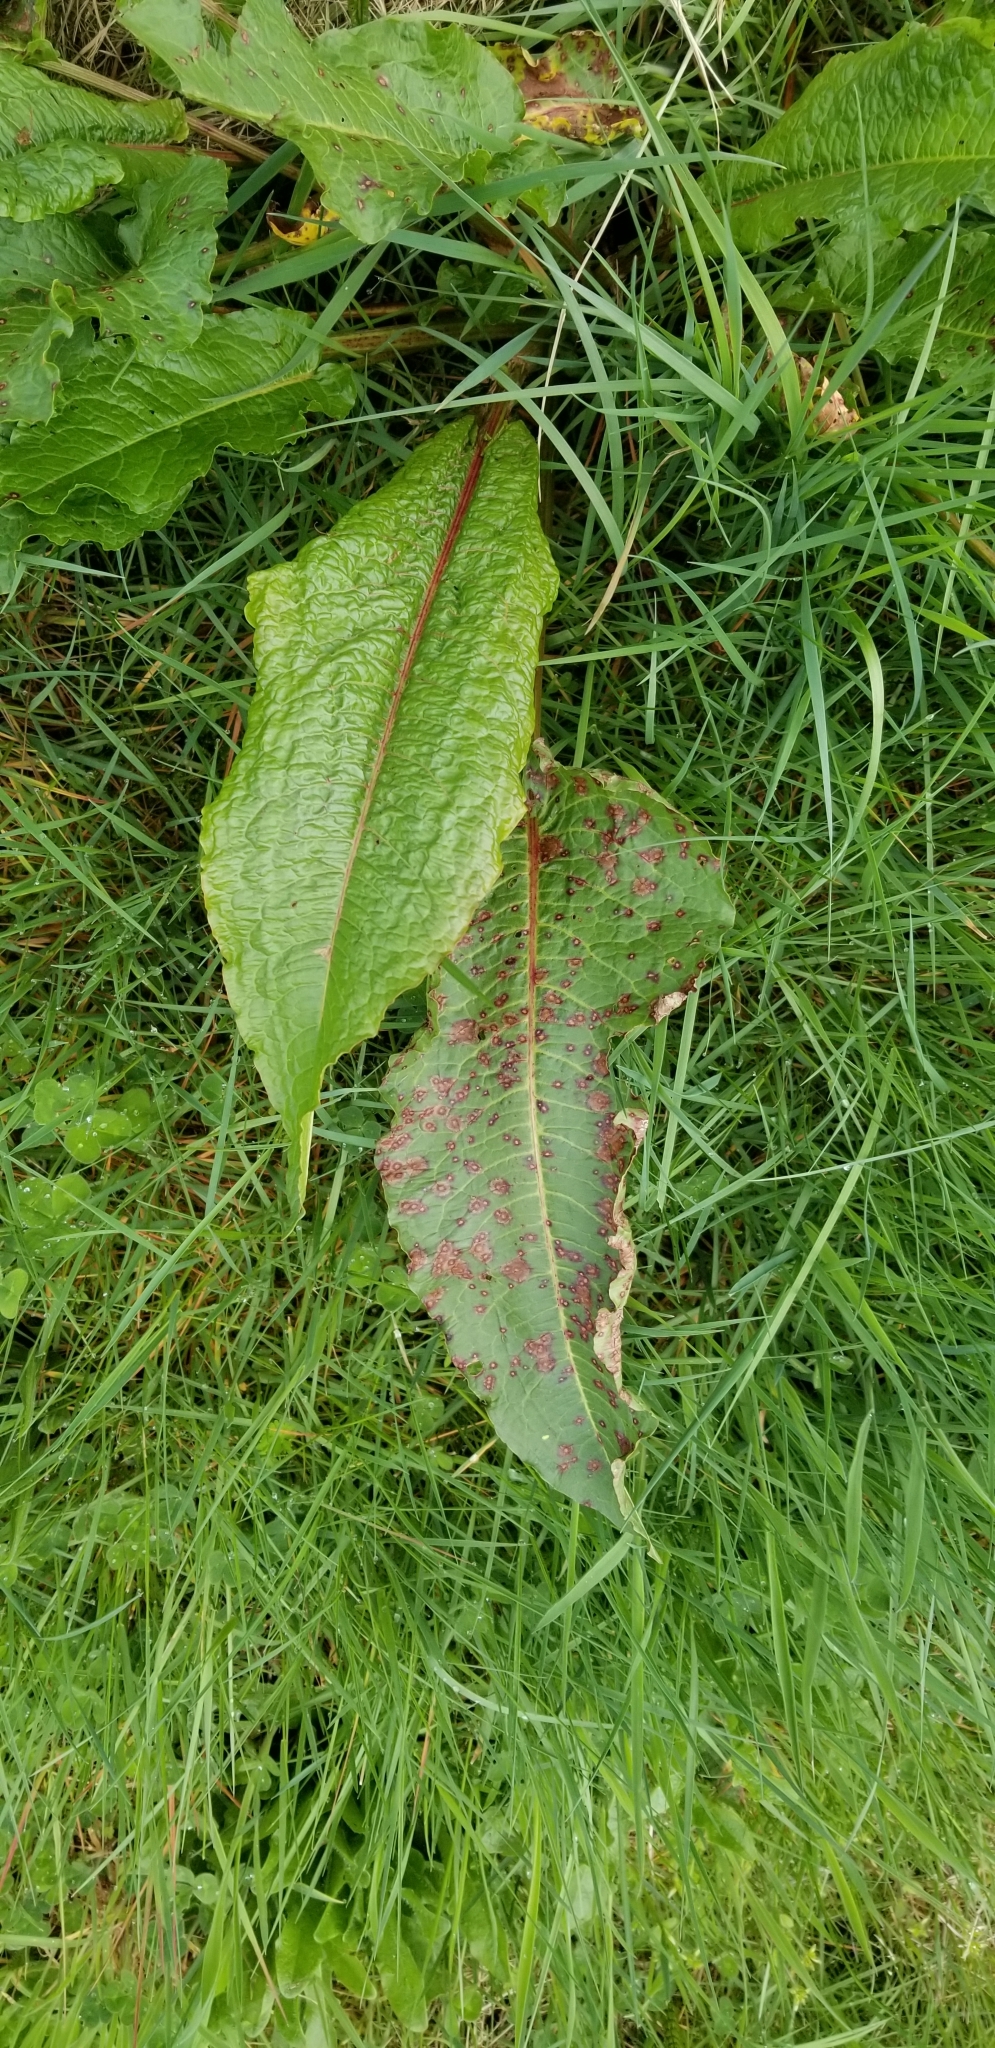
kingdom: Plantae
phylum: Tracheophyta
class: Magnoliopsida
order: Caryophyllales
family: Polygonaceae
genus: Rumex
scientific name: Rumex obtusifolius
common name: Bitter dock
